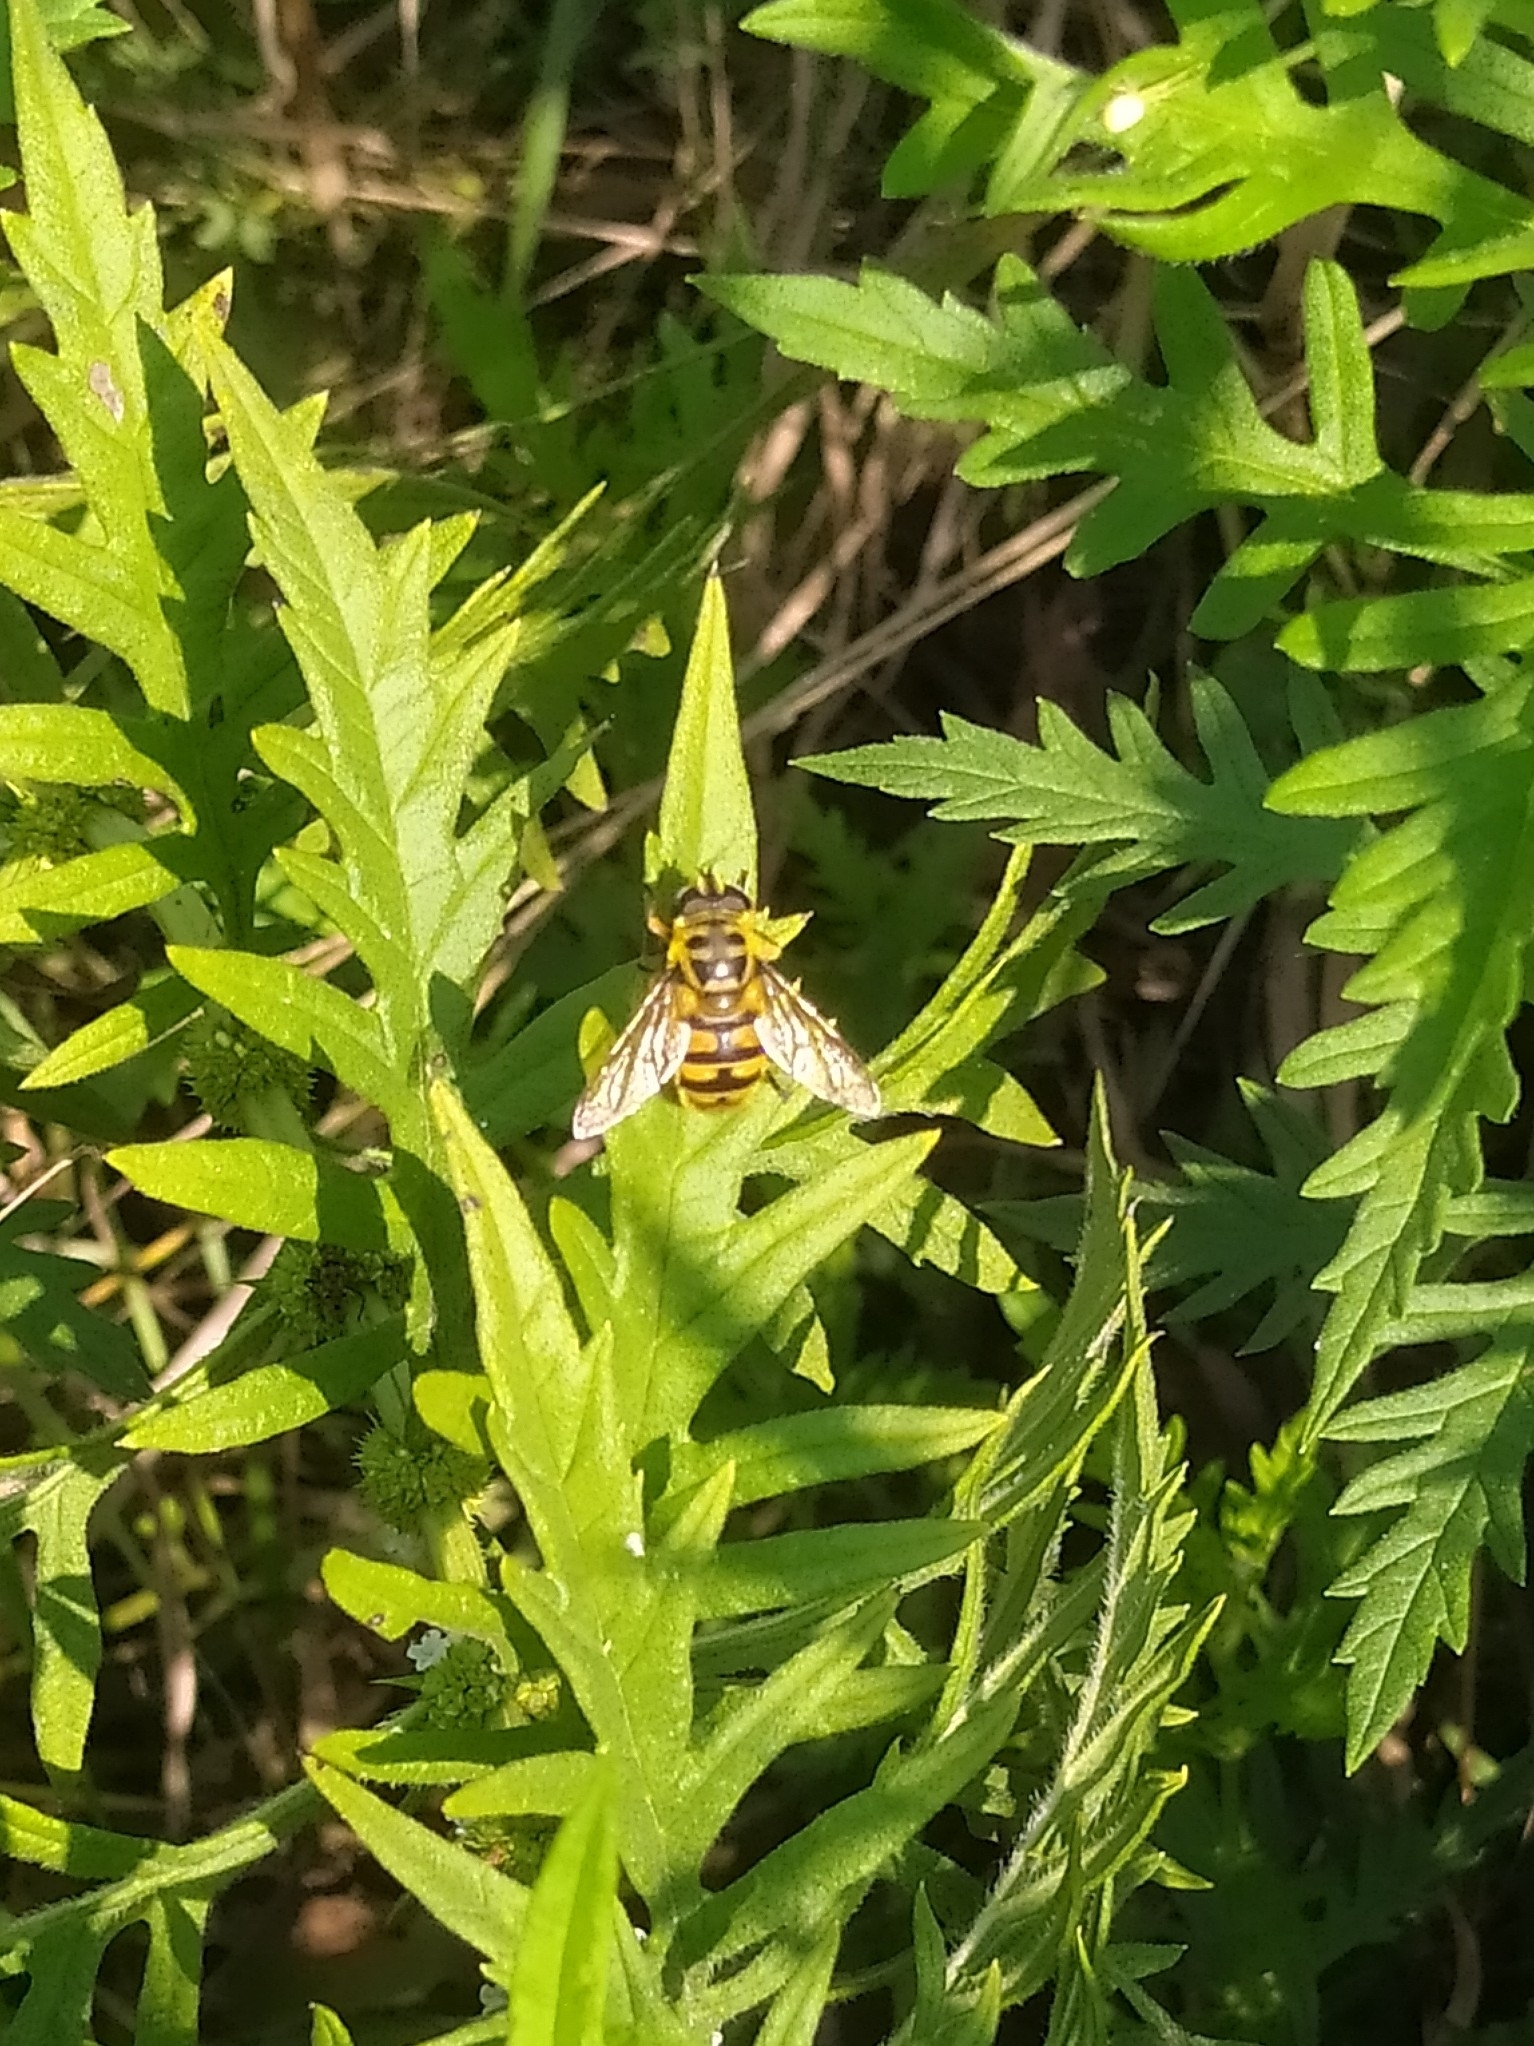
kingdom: Animalia
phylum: Arthropoda
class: Insecta
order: Diptera
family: Syrphidae
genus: Myathropa
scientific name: Myathropa florea
